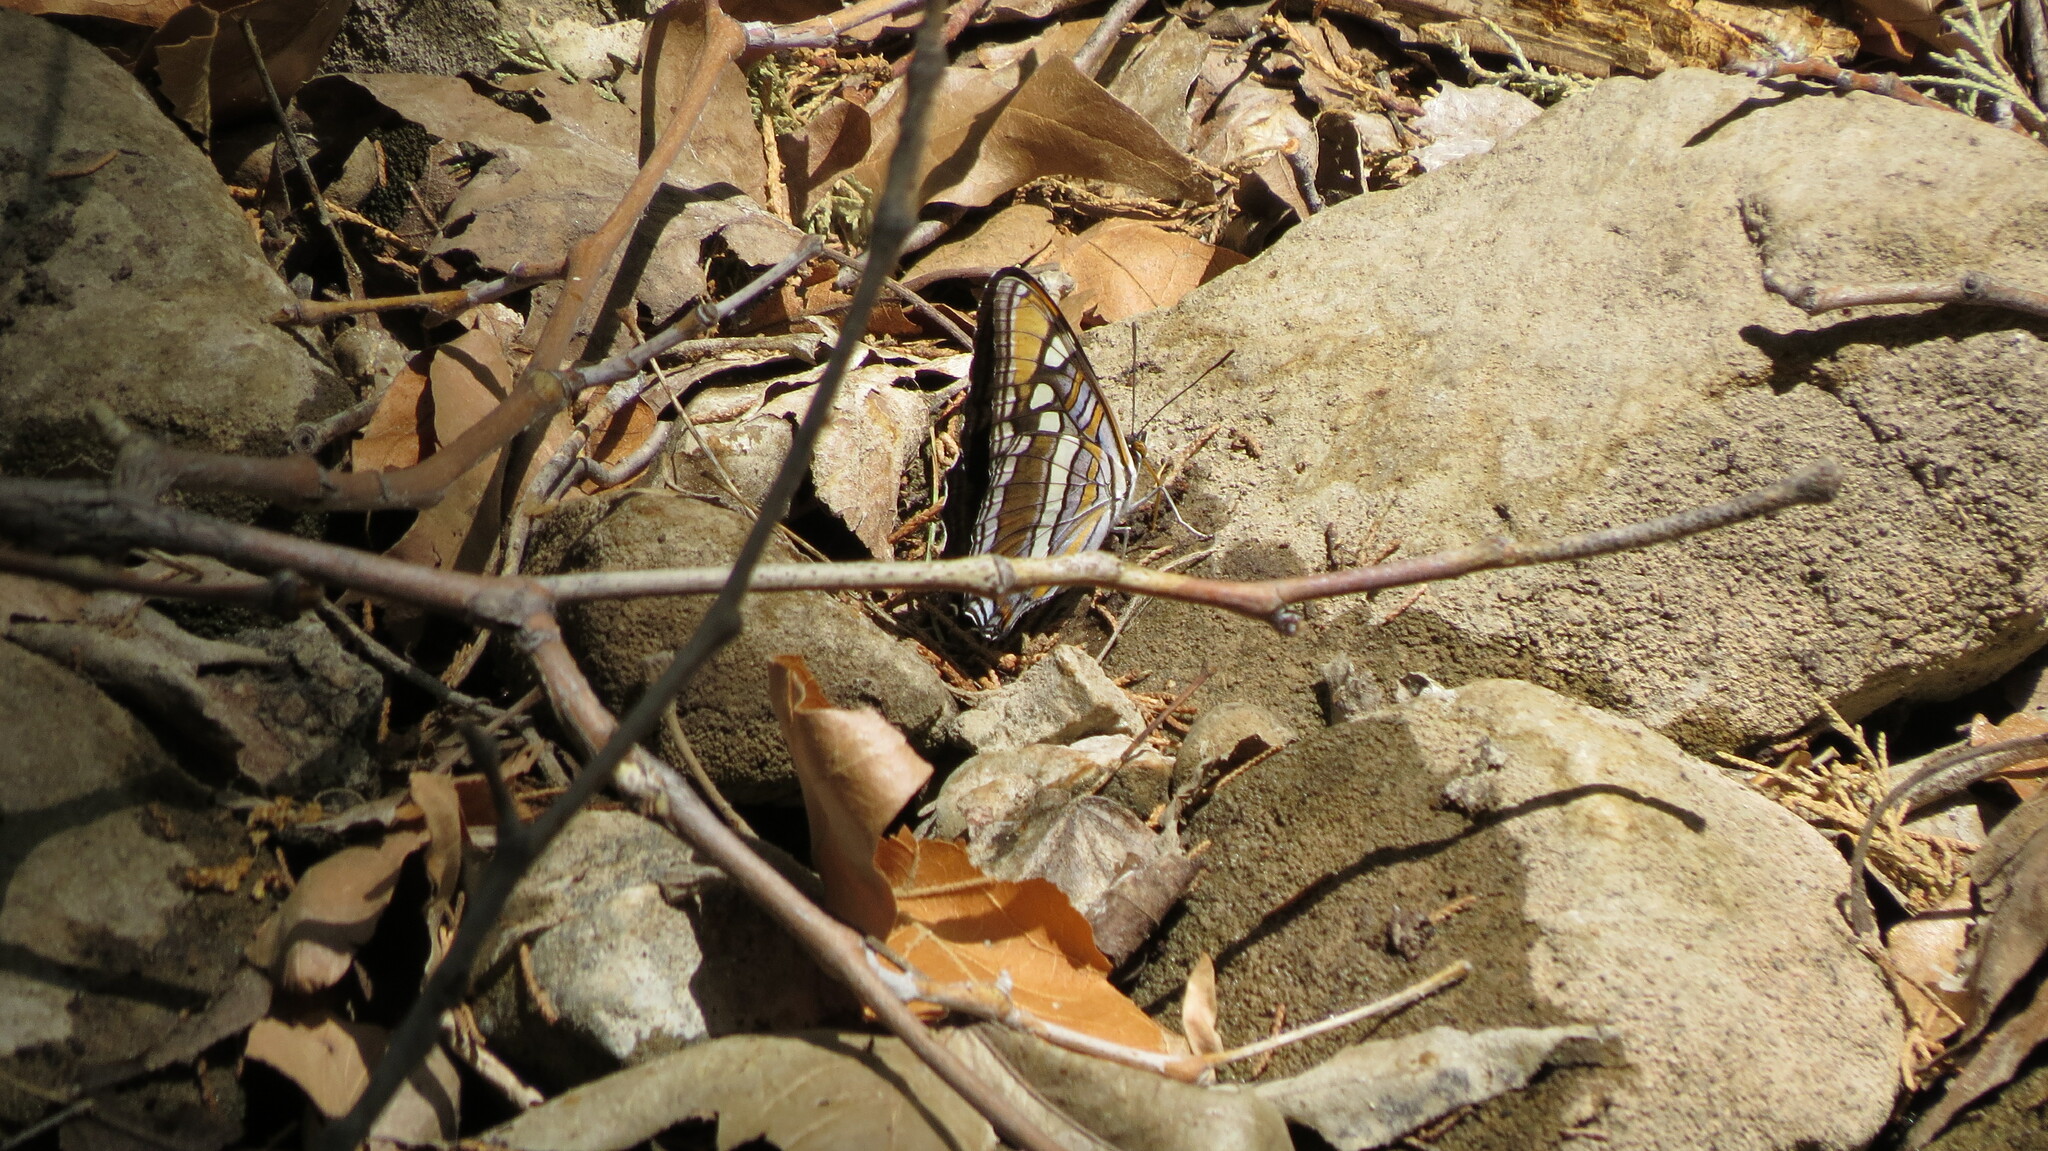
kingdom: Animalia
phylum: Arthropoda
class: Insecta
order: Lepidoptera
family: Nymphalidae
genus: Limenitis
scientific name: Limenitis bredowii
